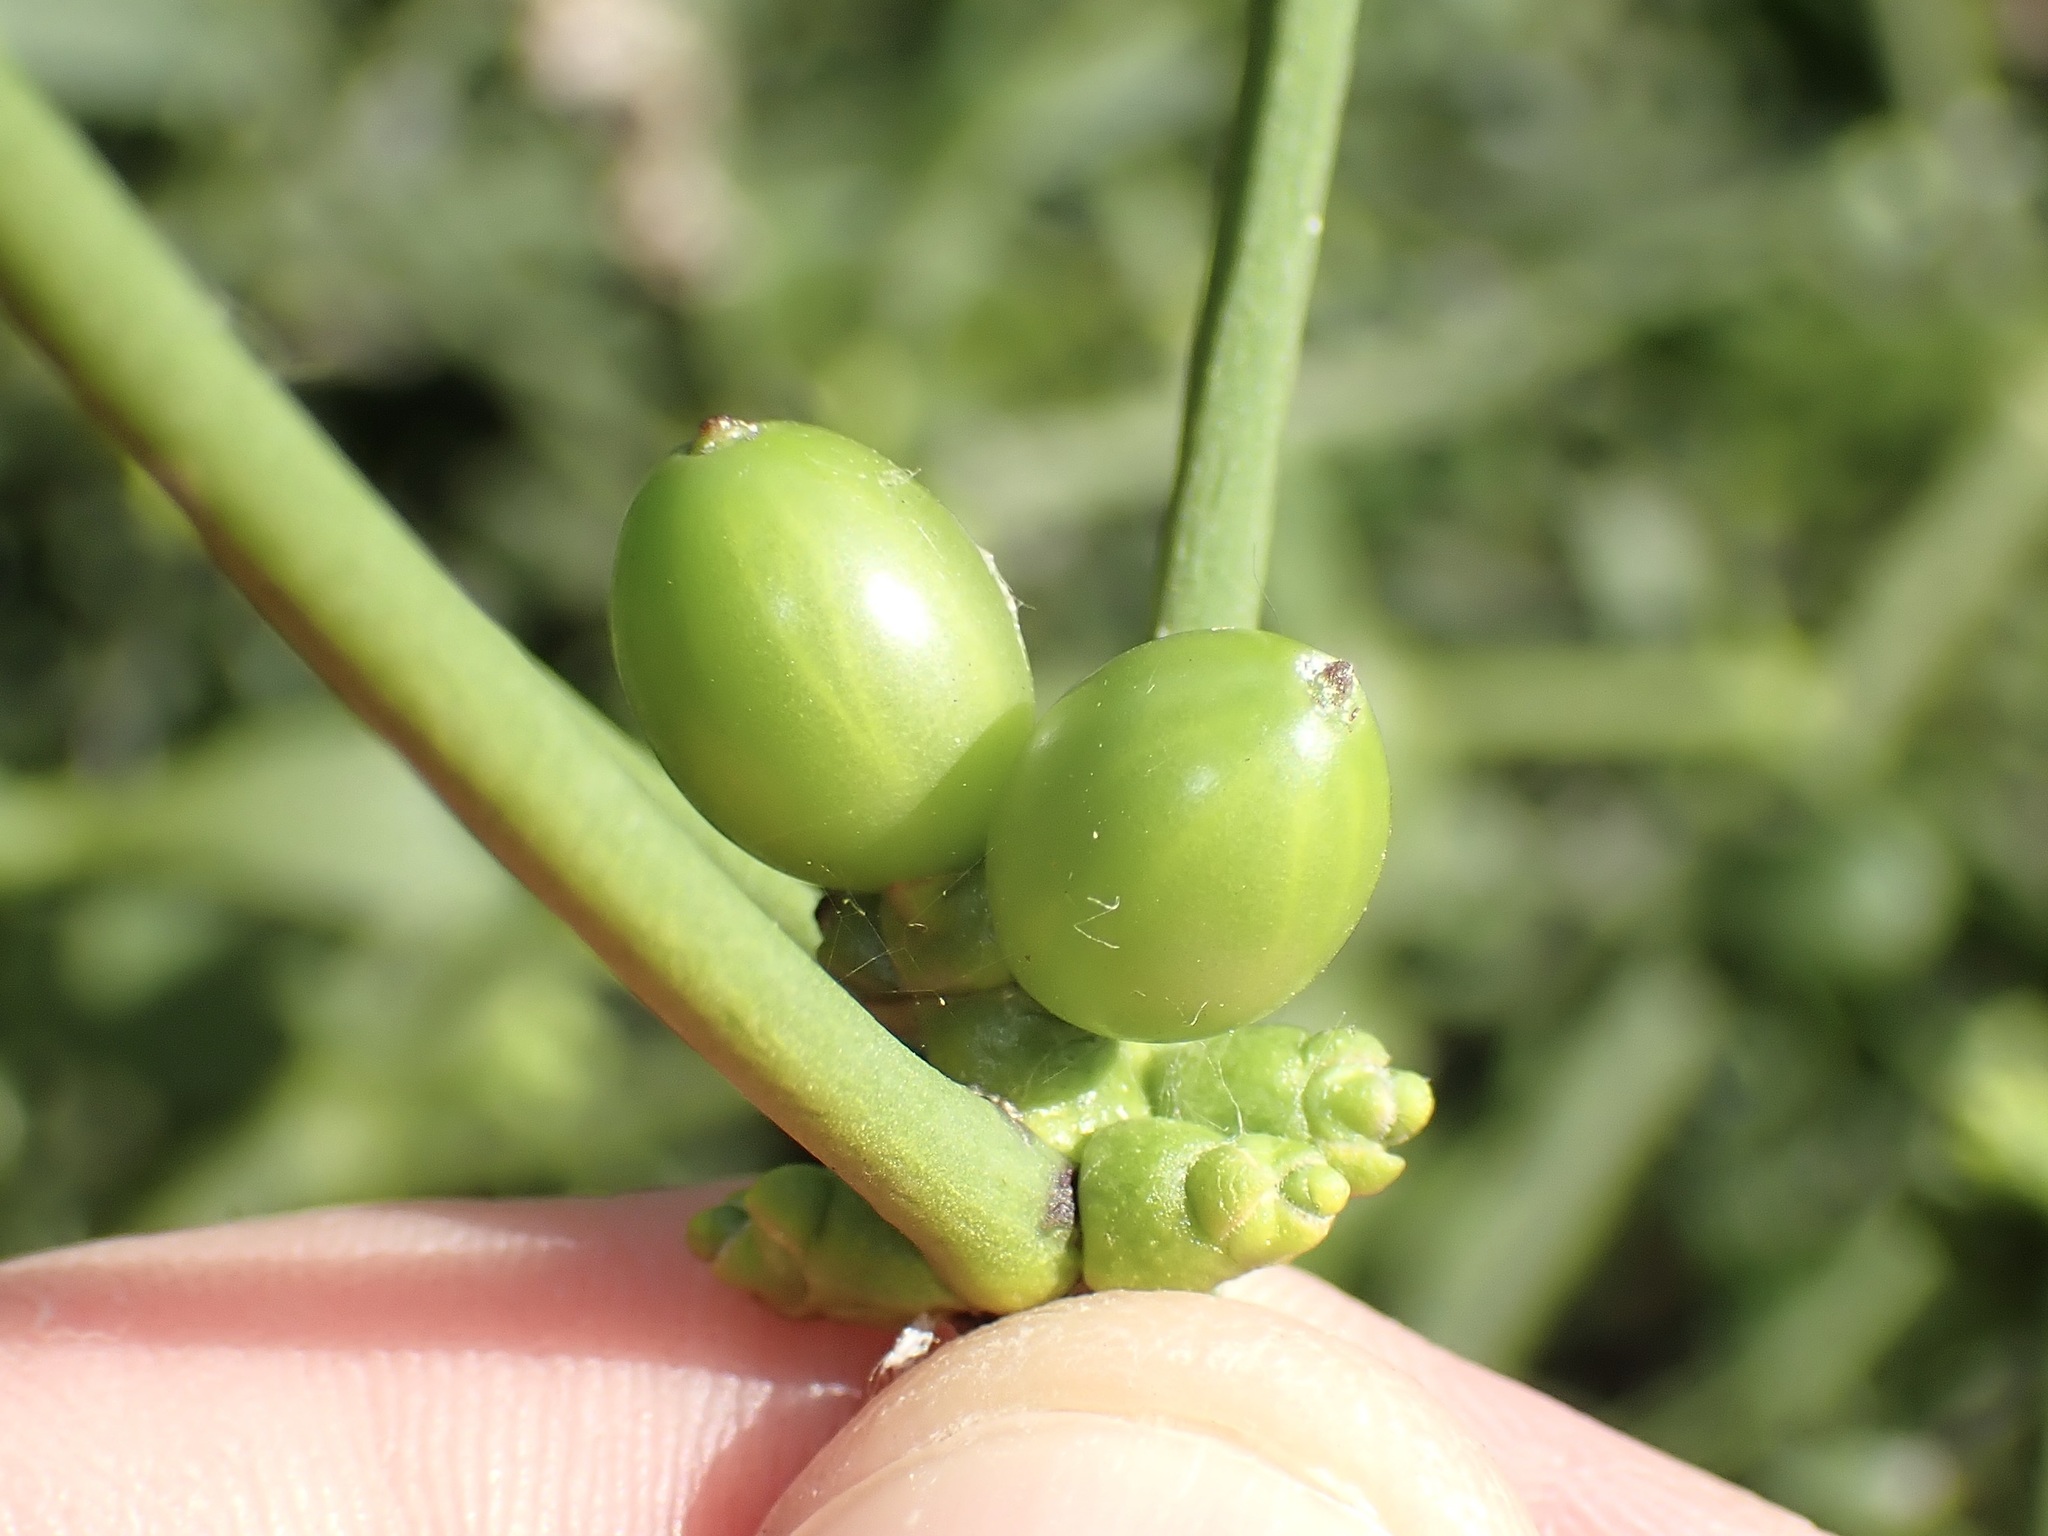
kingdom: Plantae
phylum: Tracheophyta
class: Magnoliopsida
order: Santalales
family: Viscaceae
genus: Viscum
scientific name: Viscum album
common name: Mistletoe
